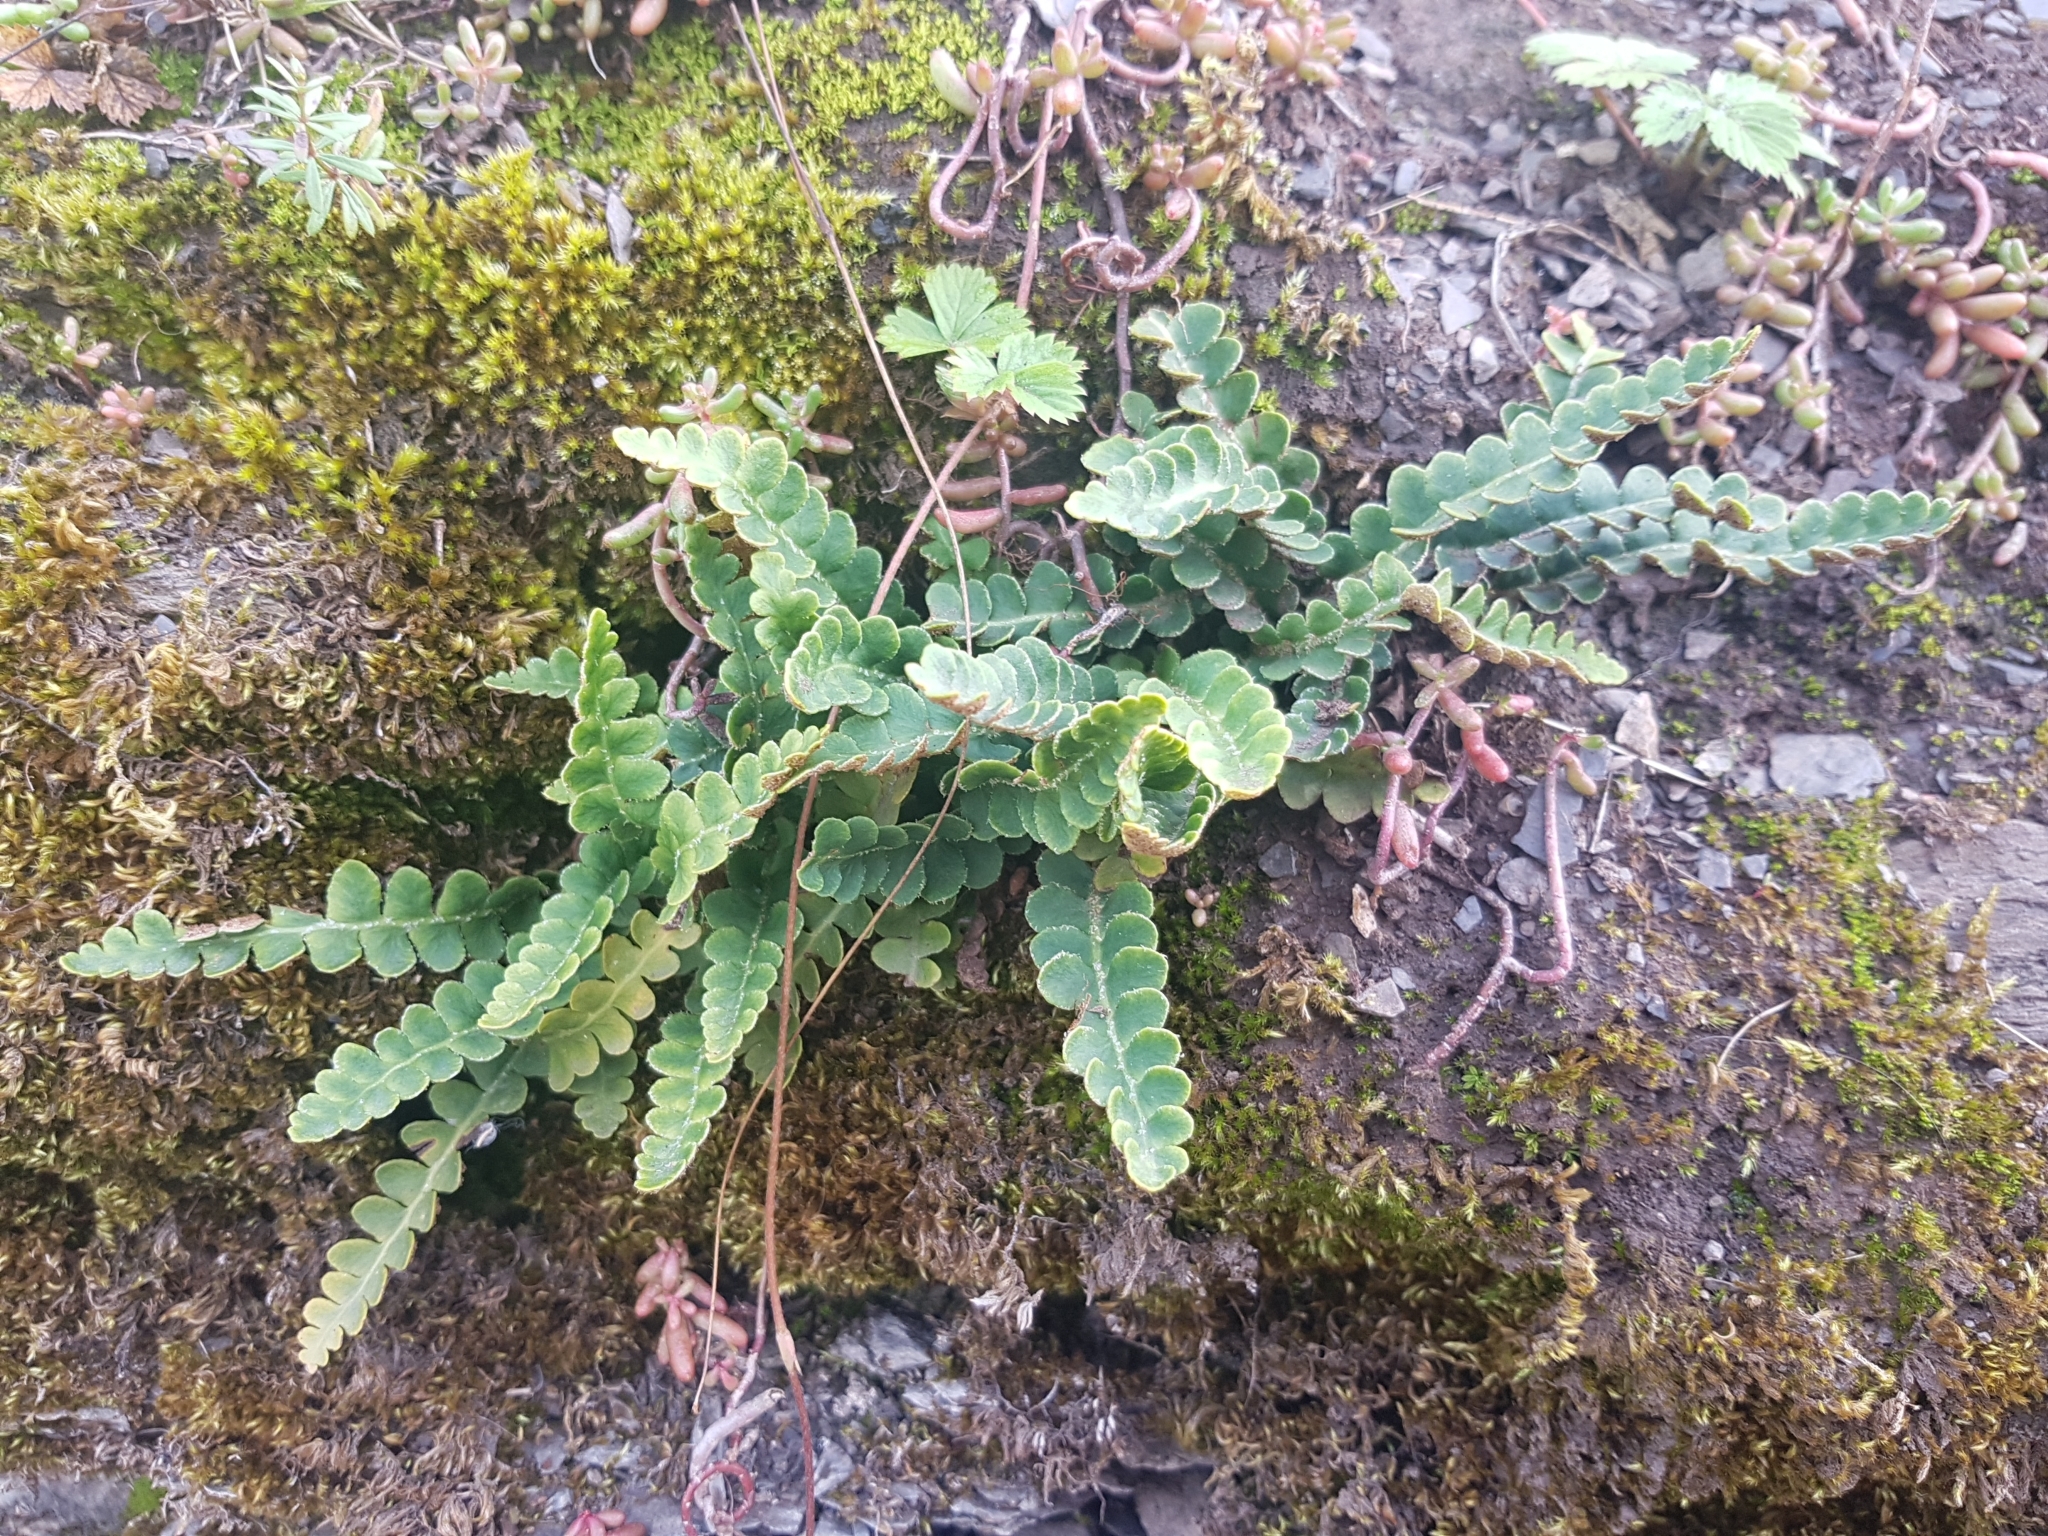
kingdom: Plantae
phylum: Tracheophyta
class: Polypodiopsida
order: Polypodiales
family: Aspleniaceae
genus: Asplenium
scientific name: Asplenium ceterach
